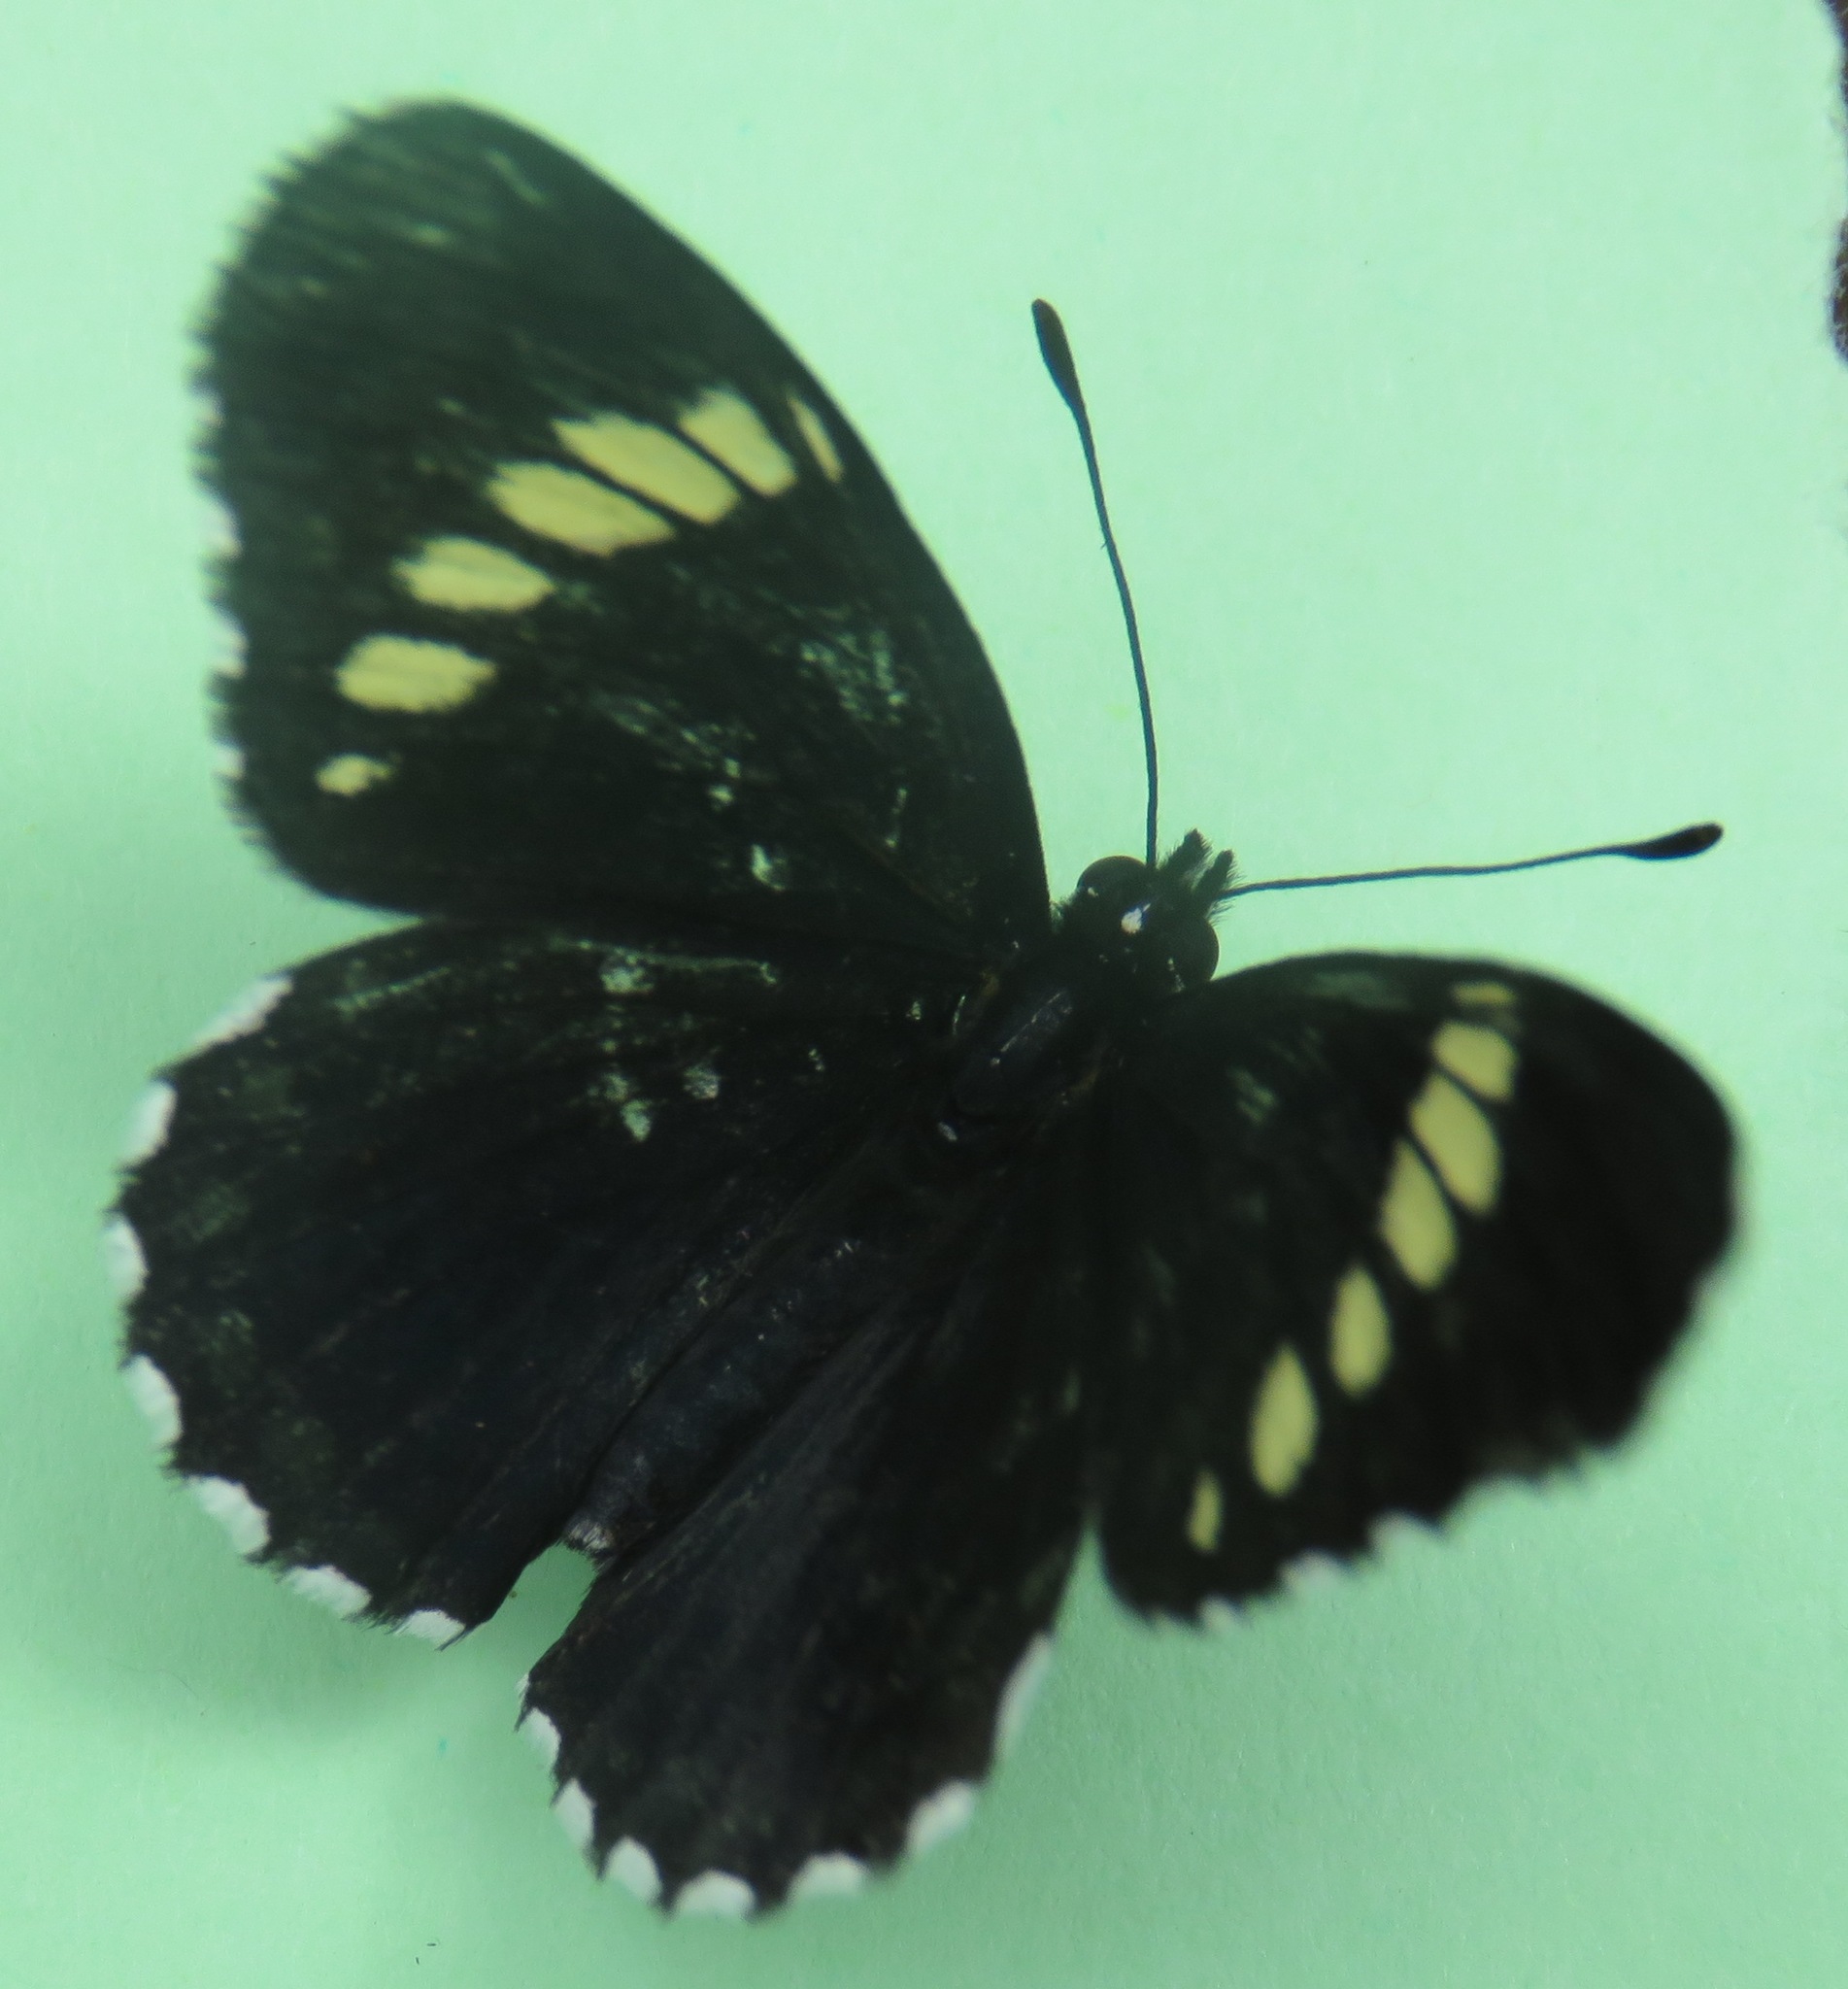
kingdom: Animalia
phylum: Arthropoda
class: Insecta
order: Lepidoptera
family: Nymphalidae
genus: Chlosyne
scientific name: Chlosyne melanarge
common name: Cream-banded checkerspot
